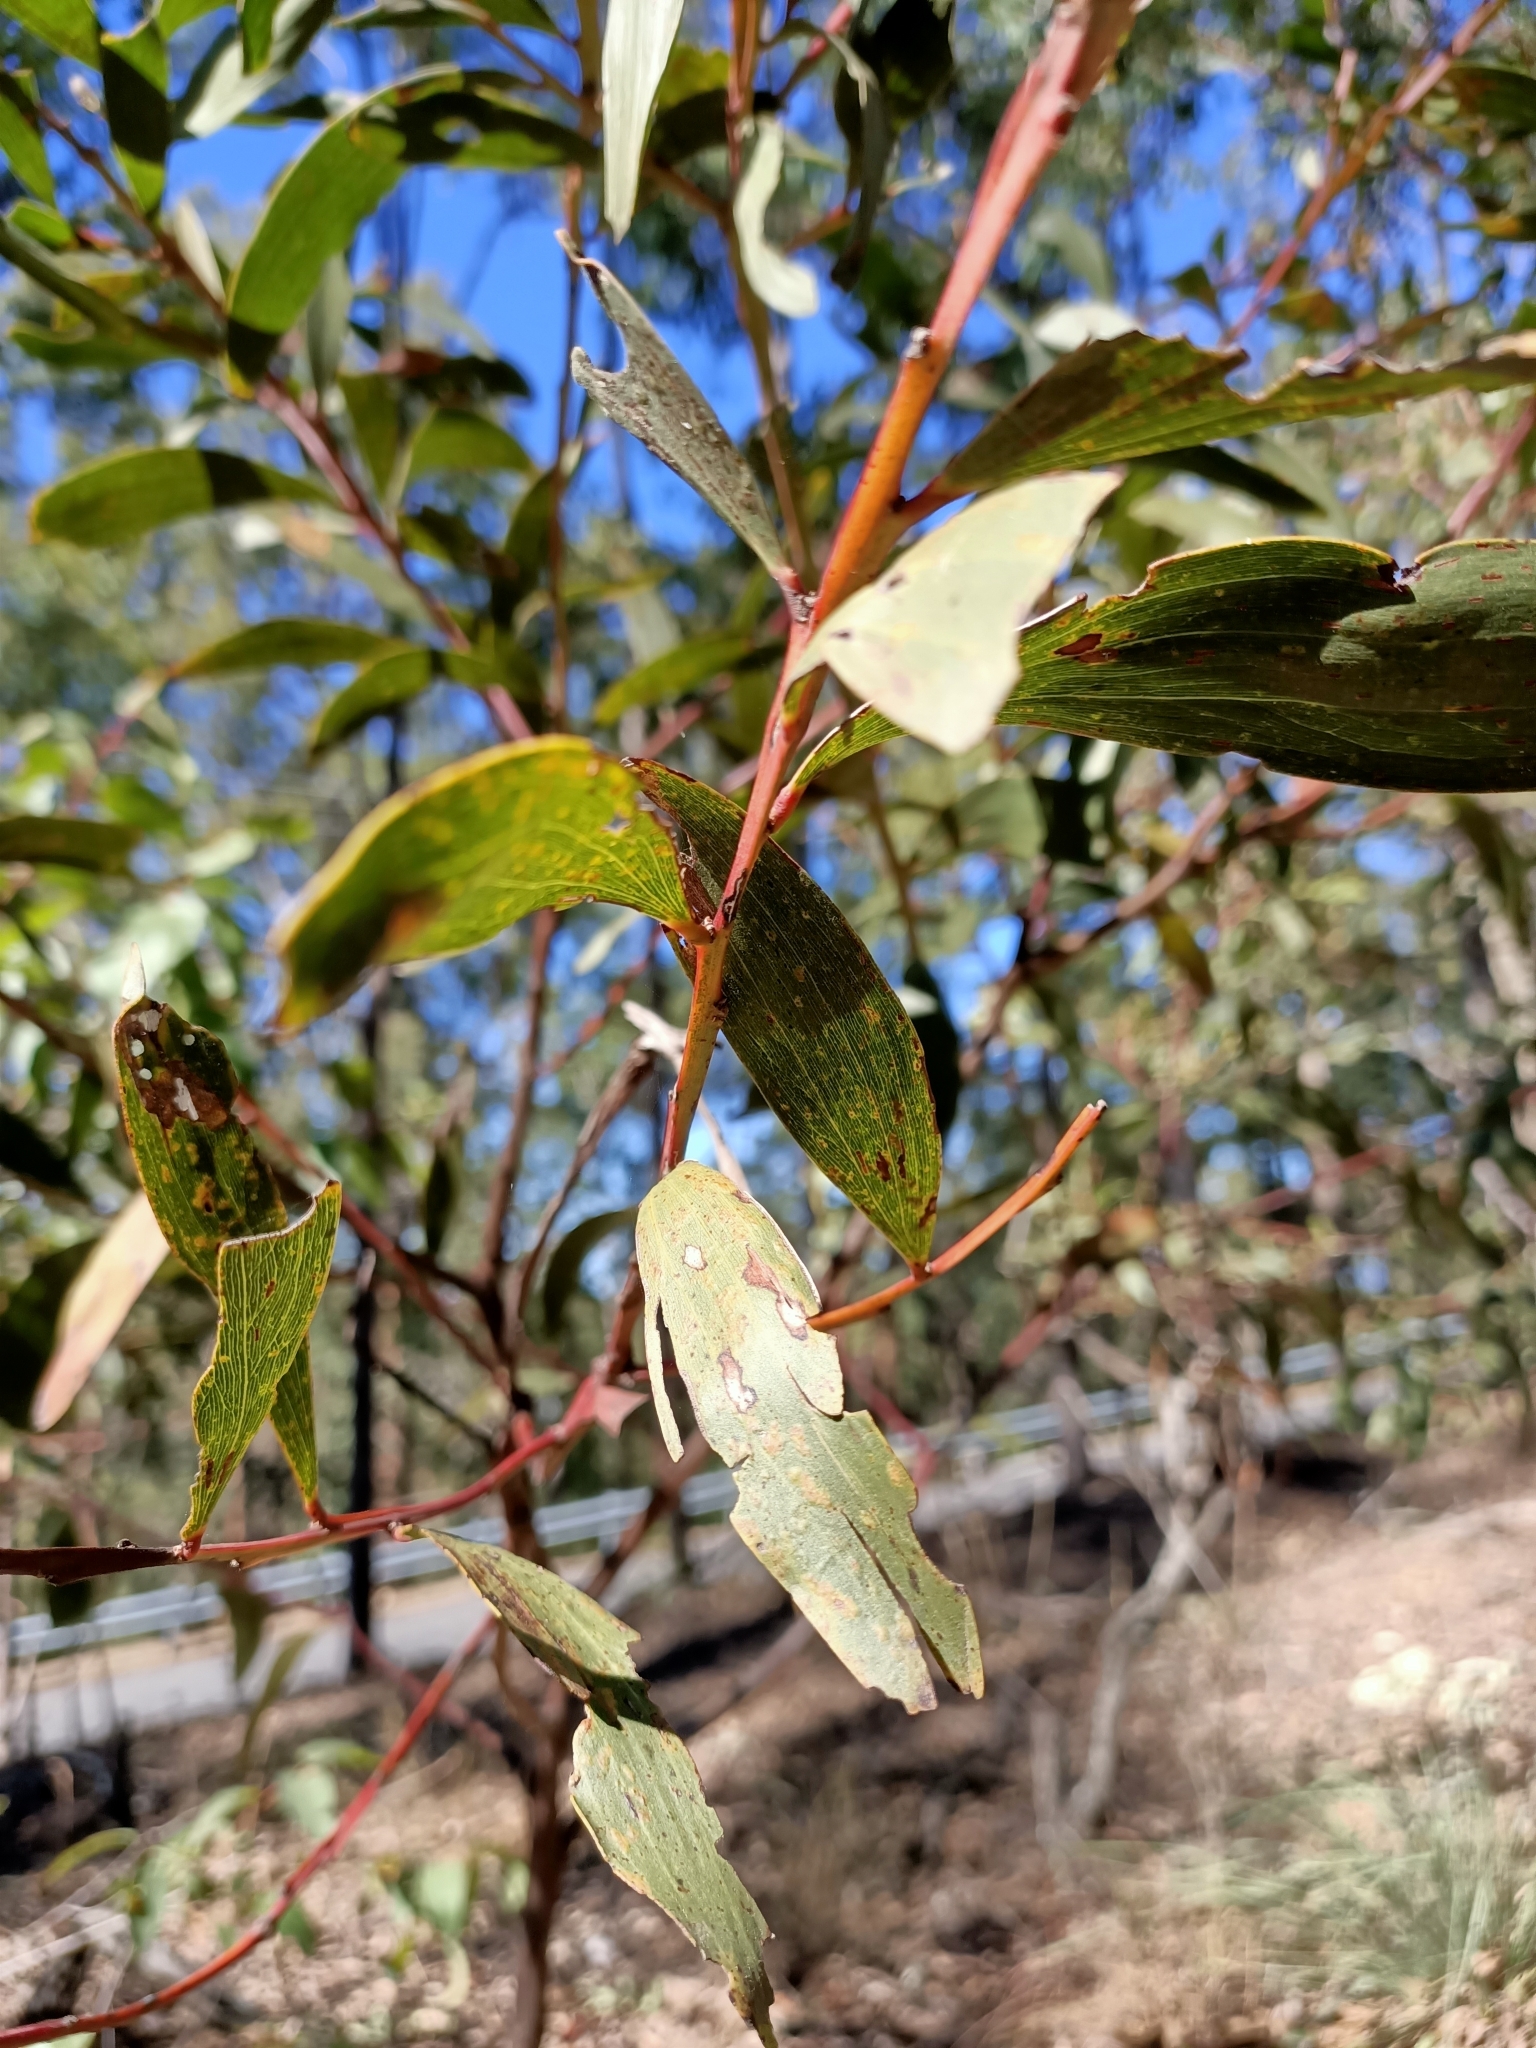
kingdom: Plantae
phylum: Tracheophyta
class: Magnoliopsida
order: Fabales
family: Fabaceae
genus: Acacia
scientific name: Acacia leiocalyx
